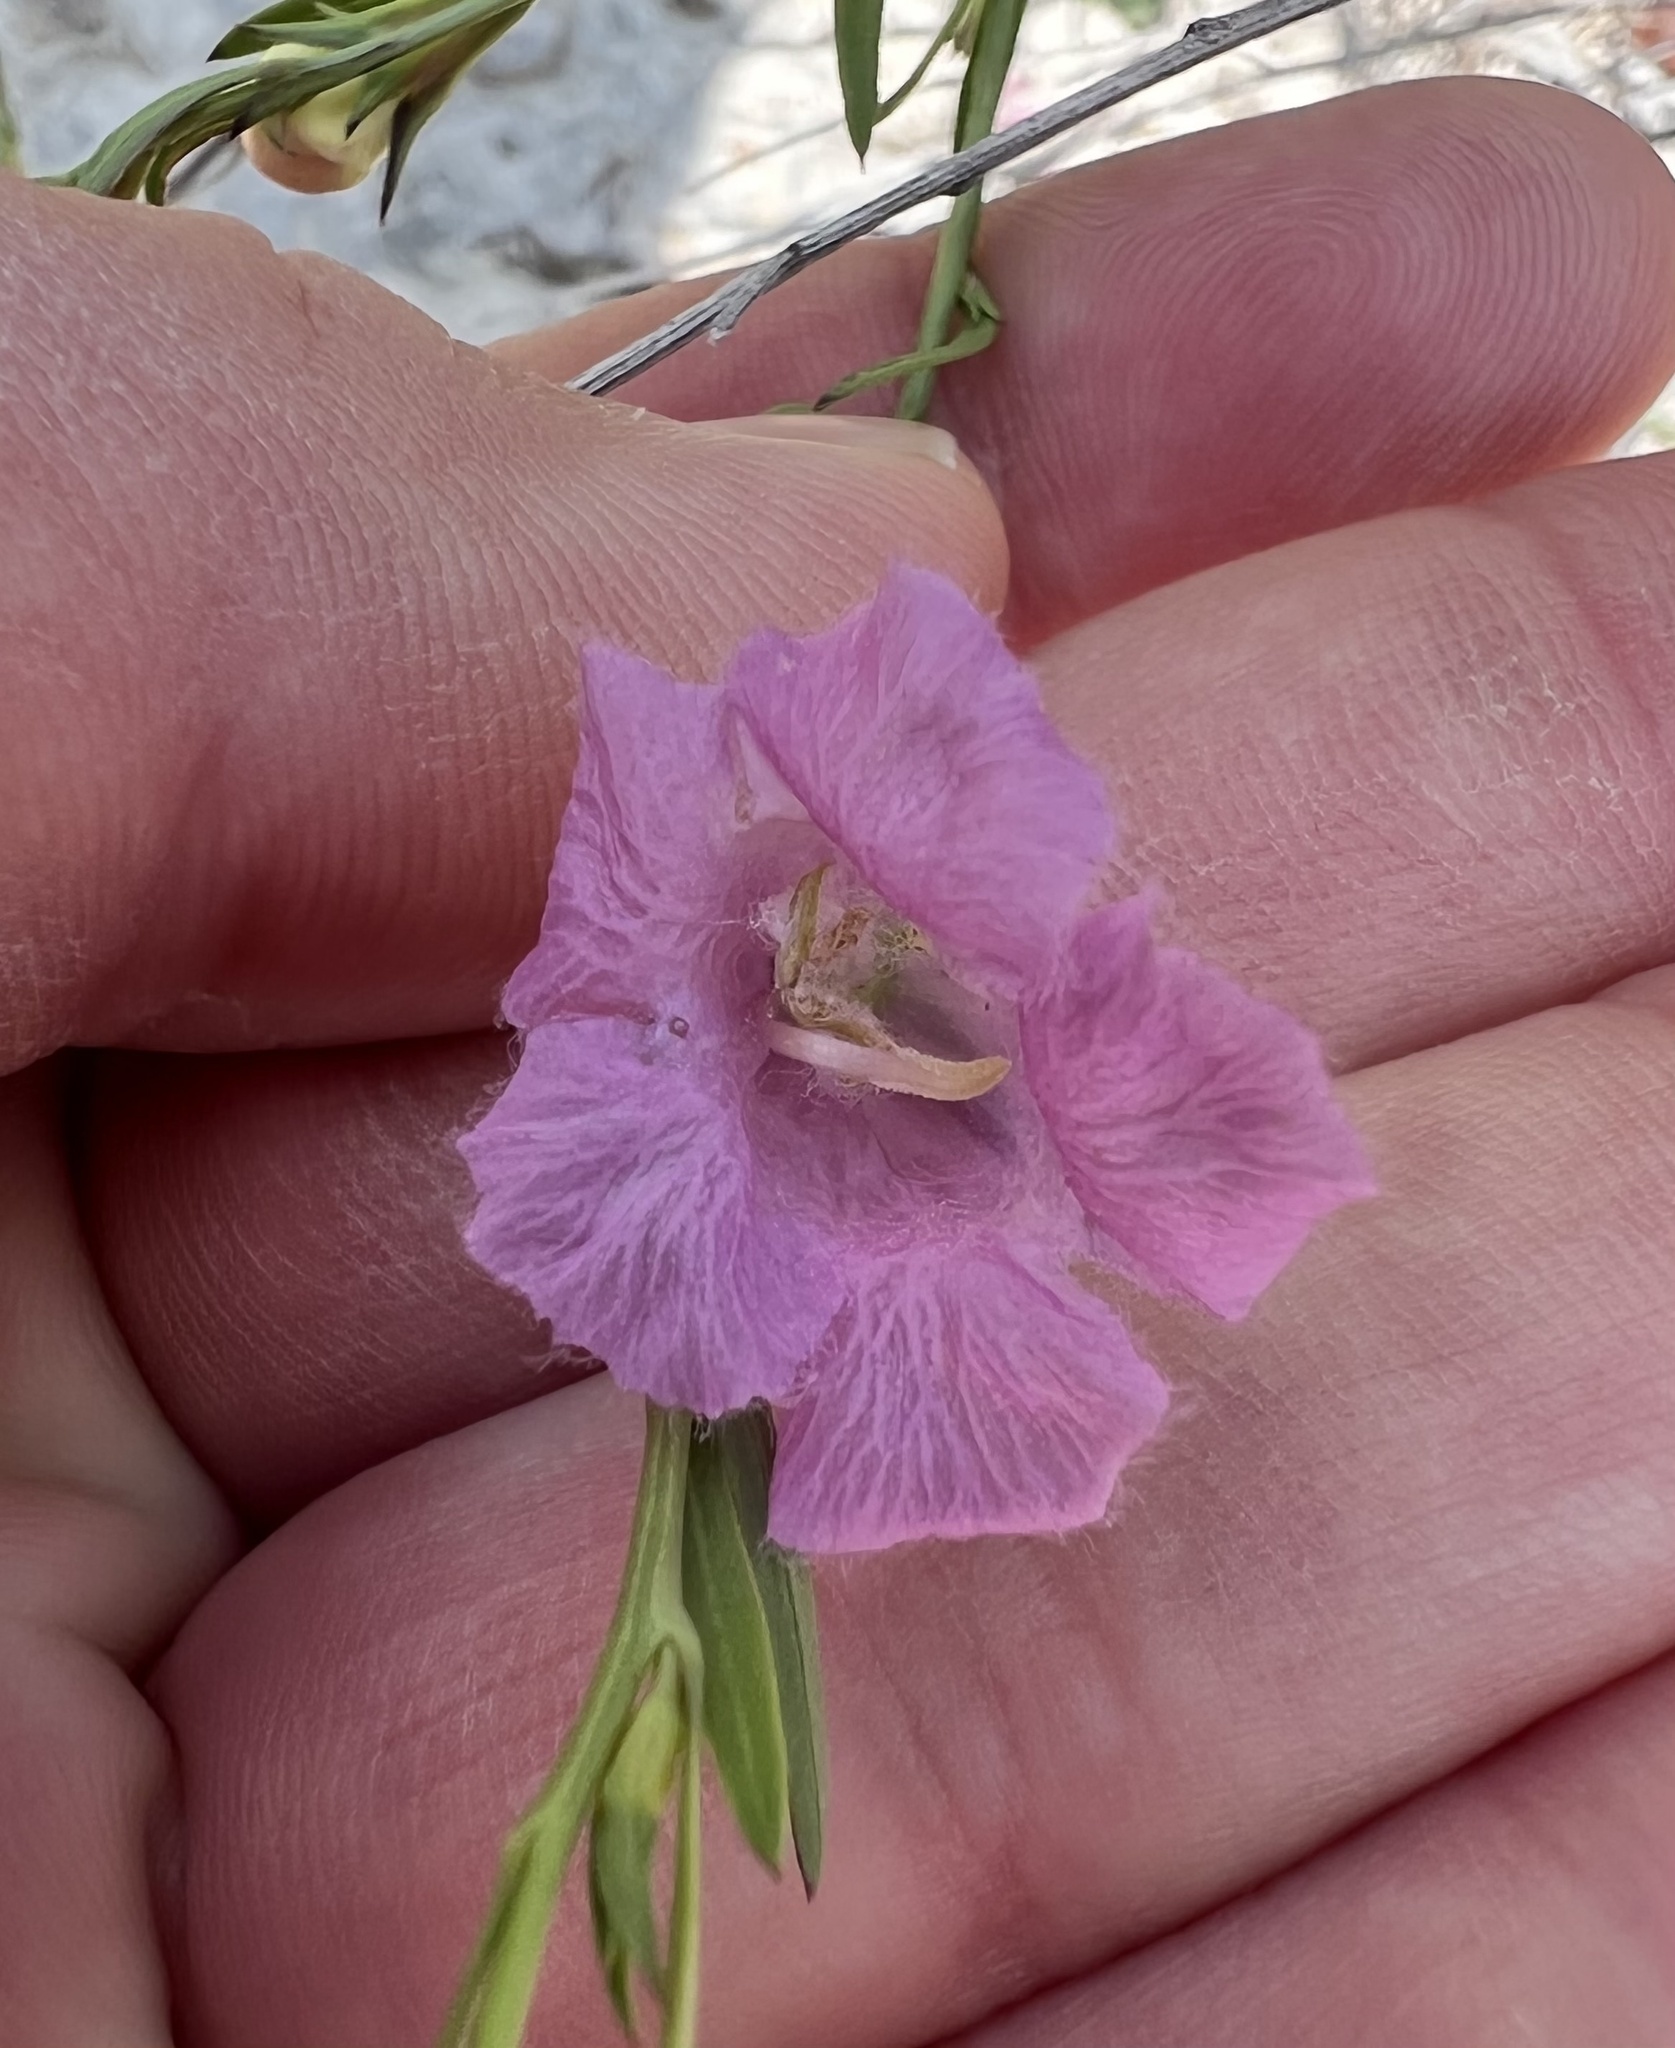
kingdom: Plantae
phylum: Tracheophyta
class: Magnoliopsida
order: Lamiales
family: Orobanchaceae
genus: Agalinis
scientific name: Agalinis heterophylla
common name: Prairie agalinis
